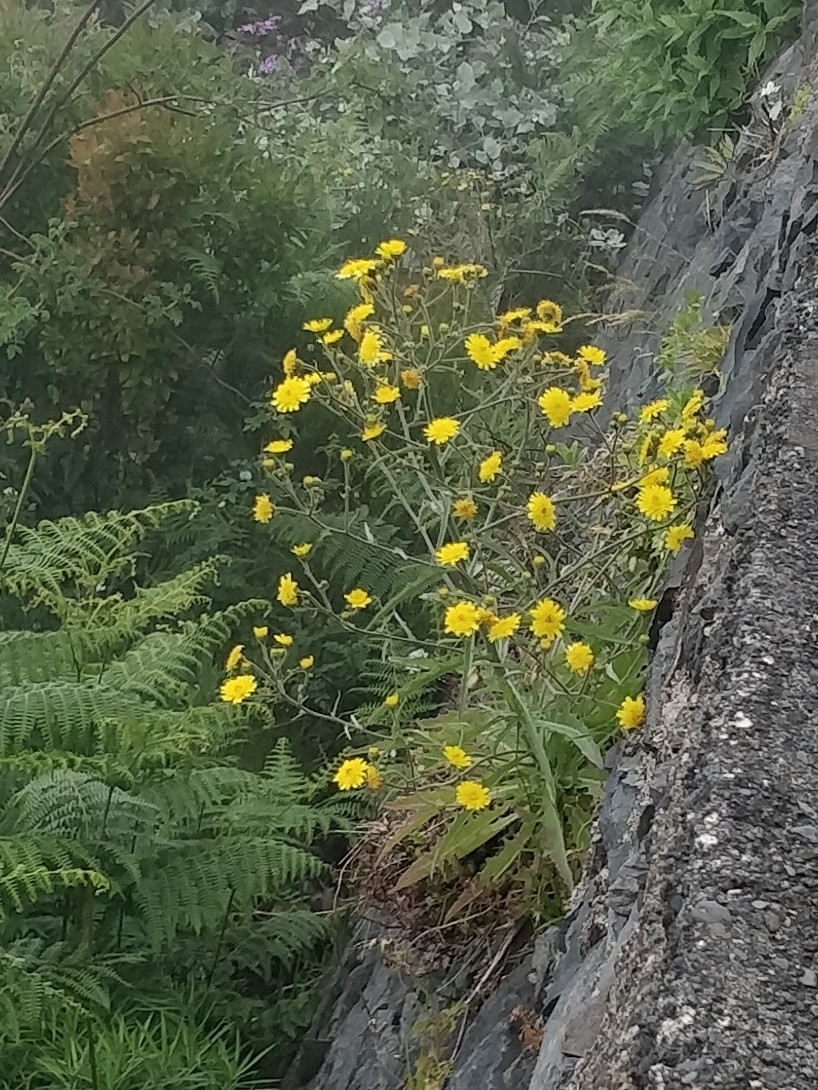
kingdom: Plantae
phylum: Tracheophyta
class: Magnoliopsida
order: Asterales
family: Asteraceae
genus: Andryala
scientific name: Andryala glandulosa
